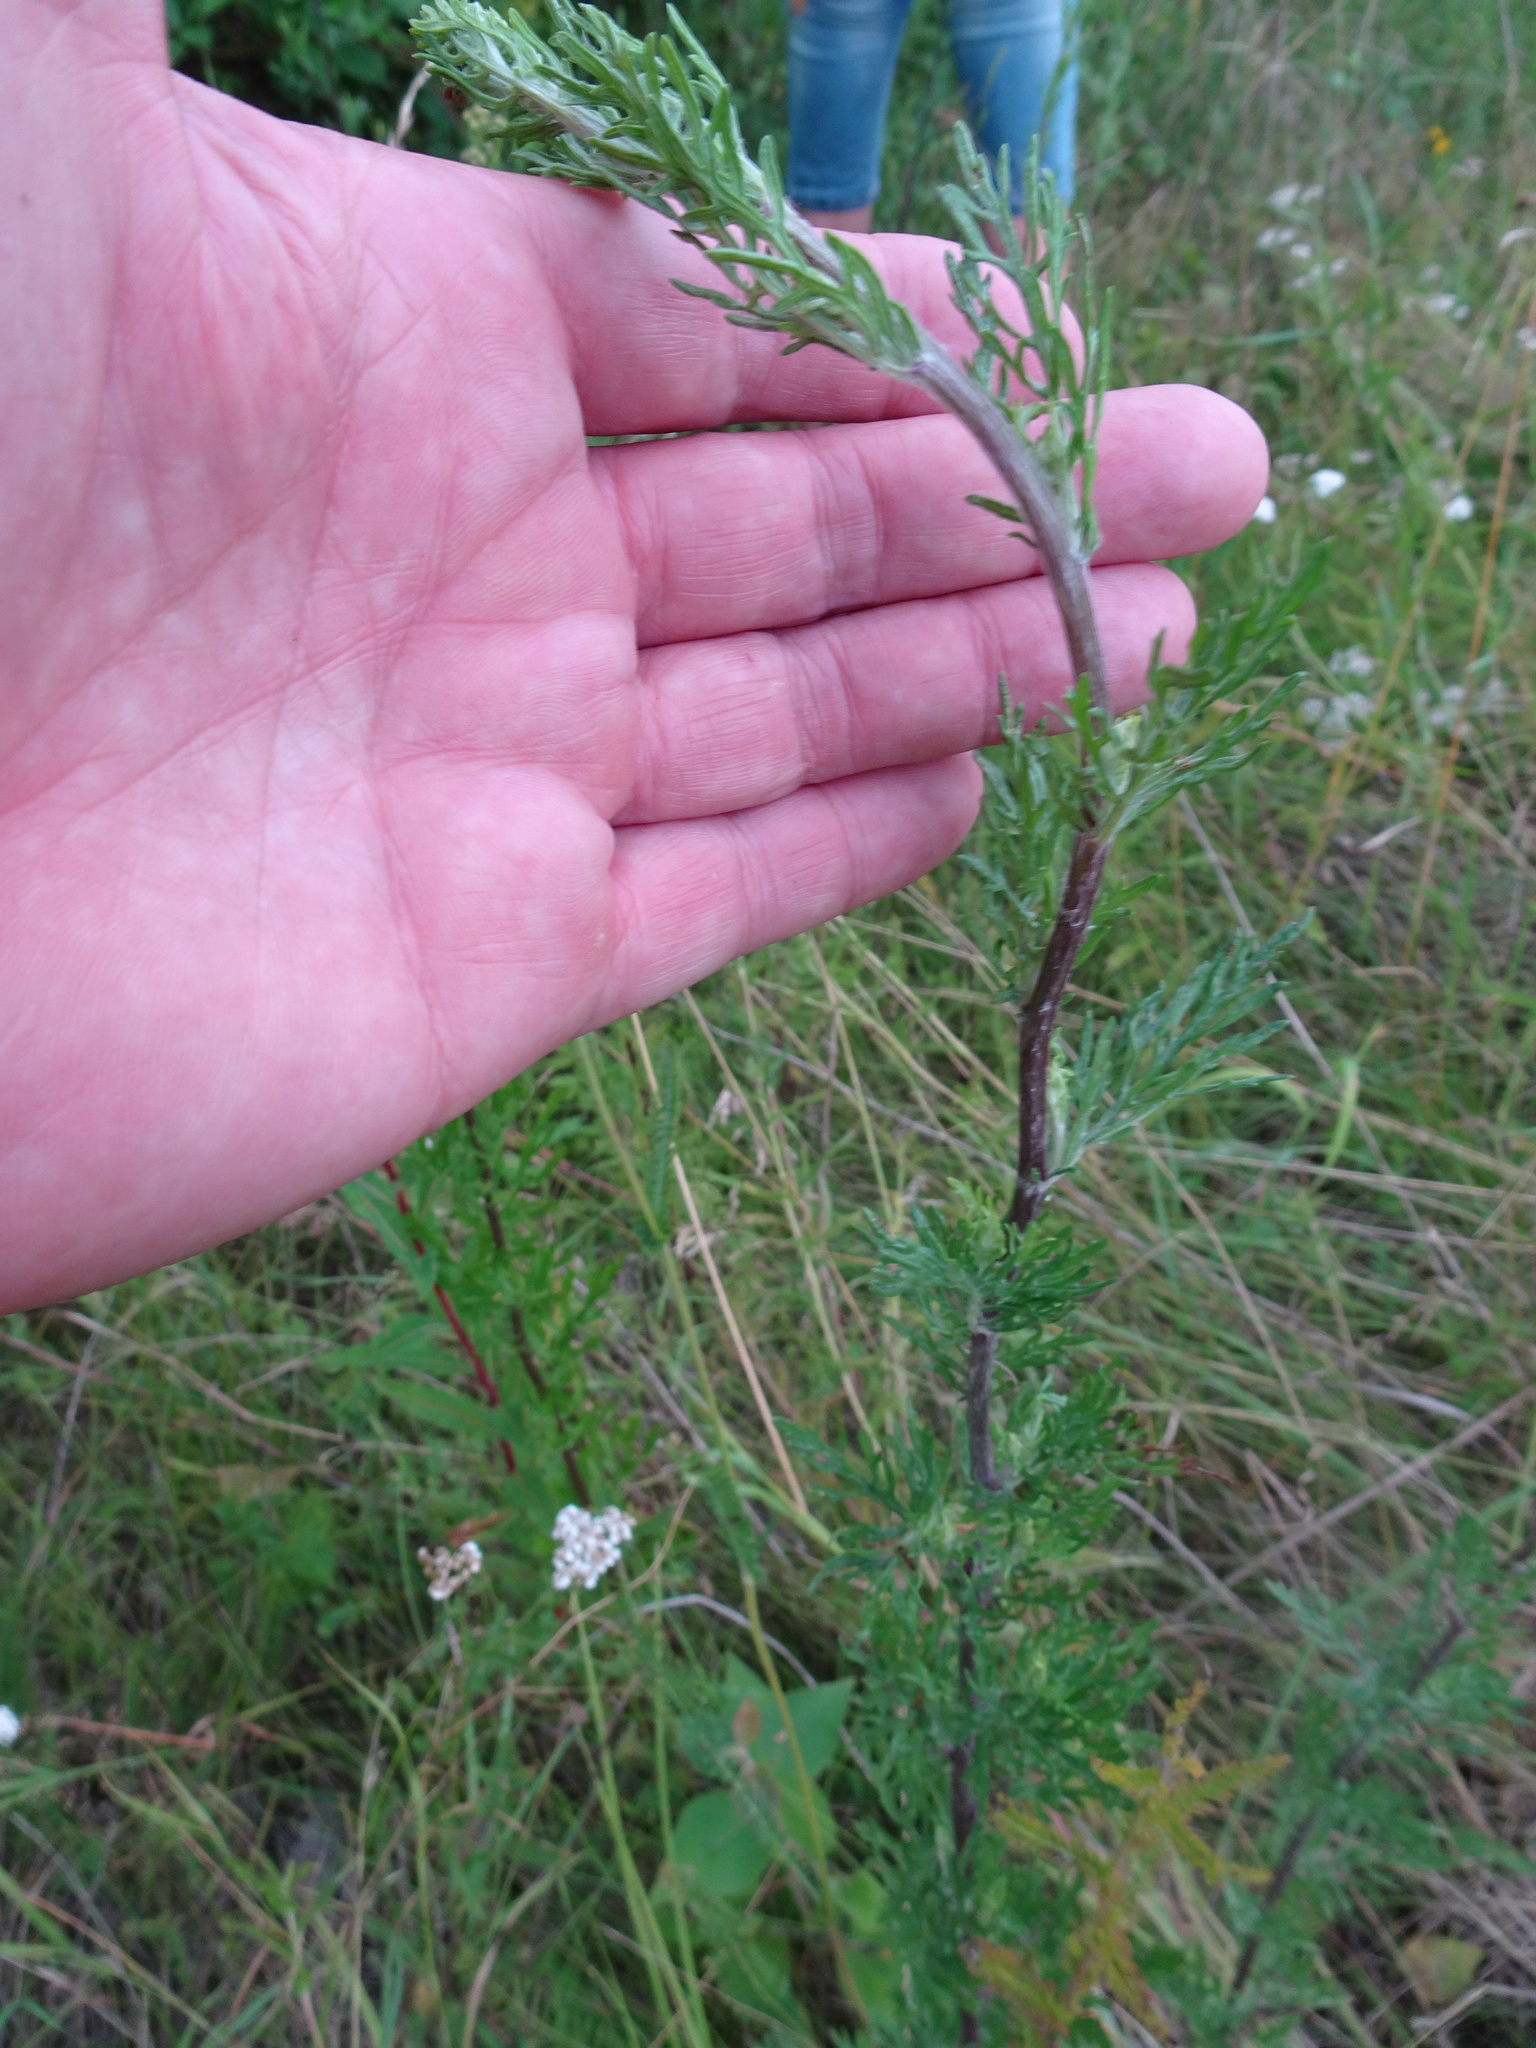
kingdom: Plantae
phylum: Tracheophyta
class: Magnoliopsida
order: Asterales
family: Asteraceae
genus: Jacobaea
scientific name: Jacobaea erucifolia
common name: Hoary ragwort
